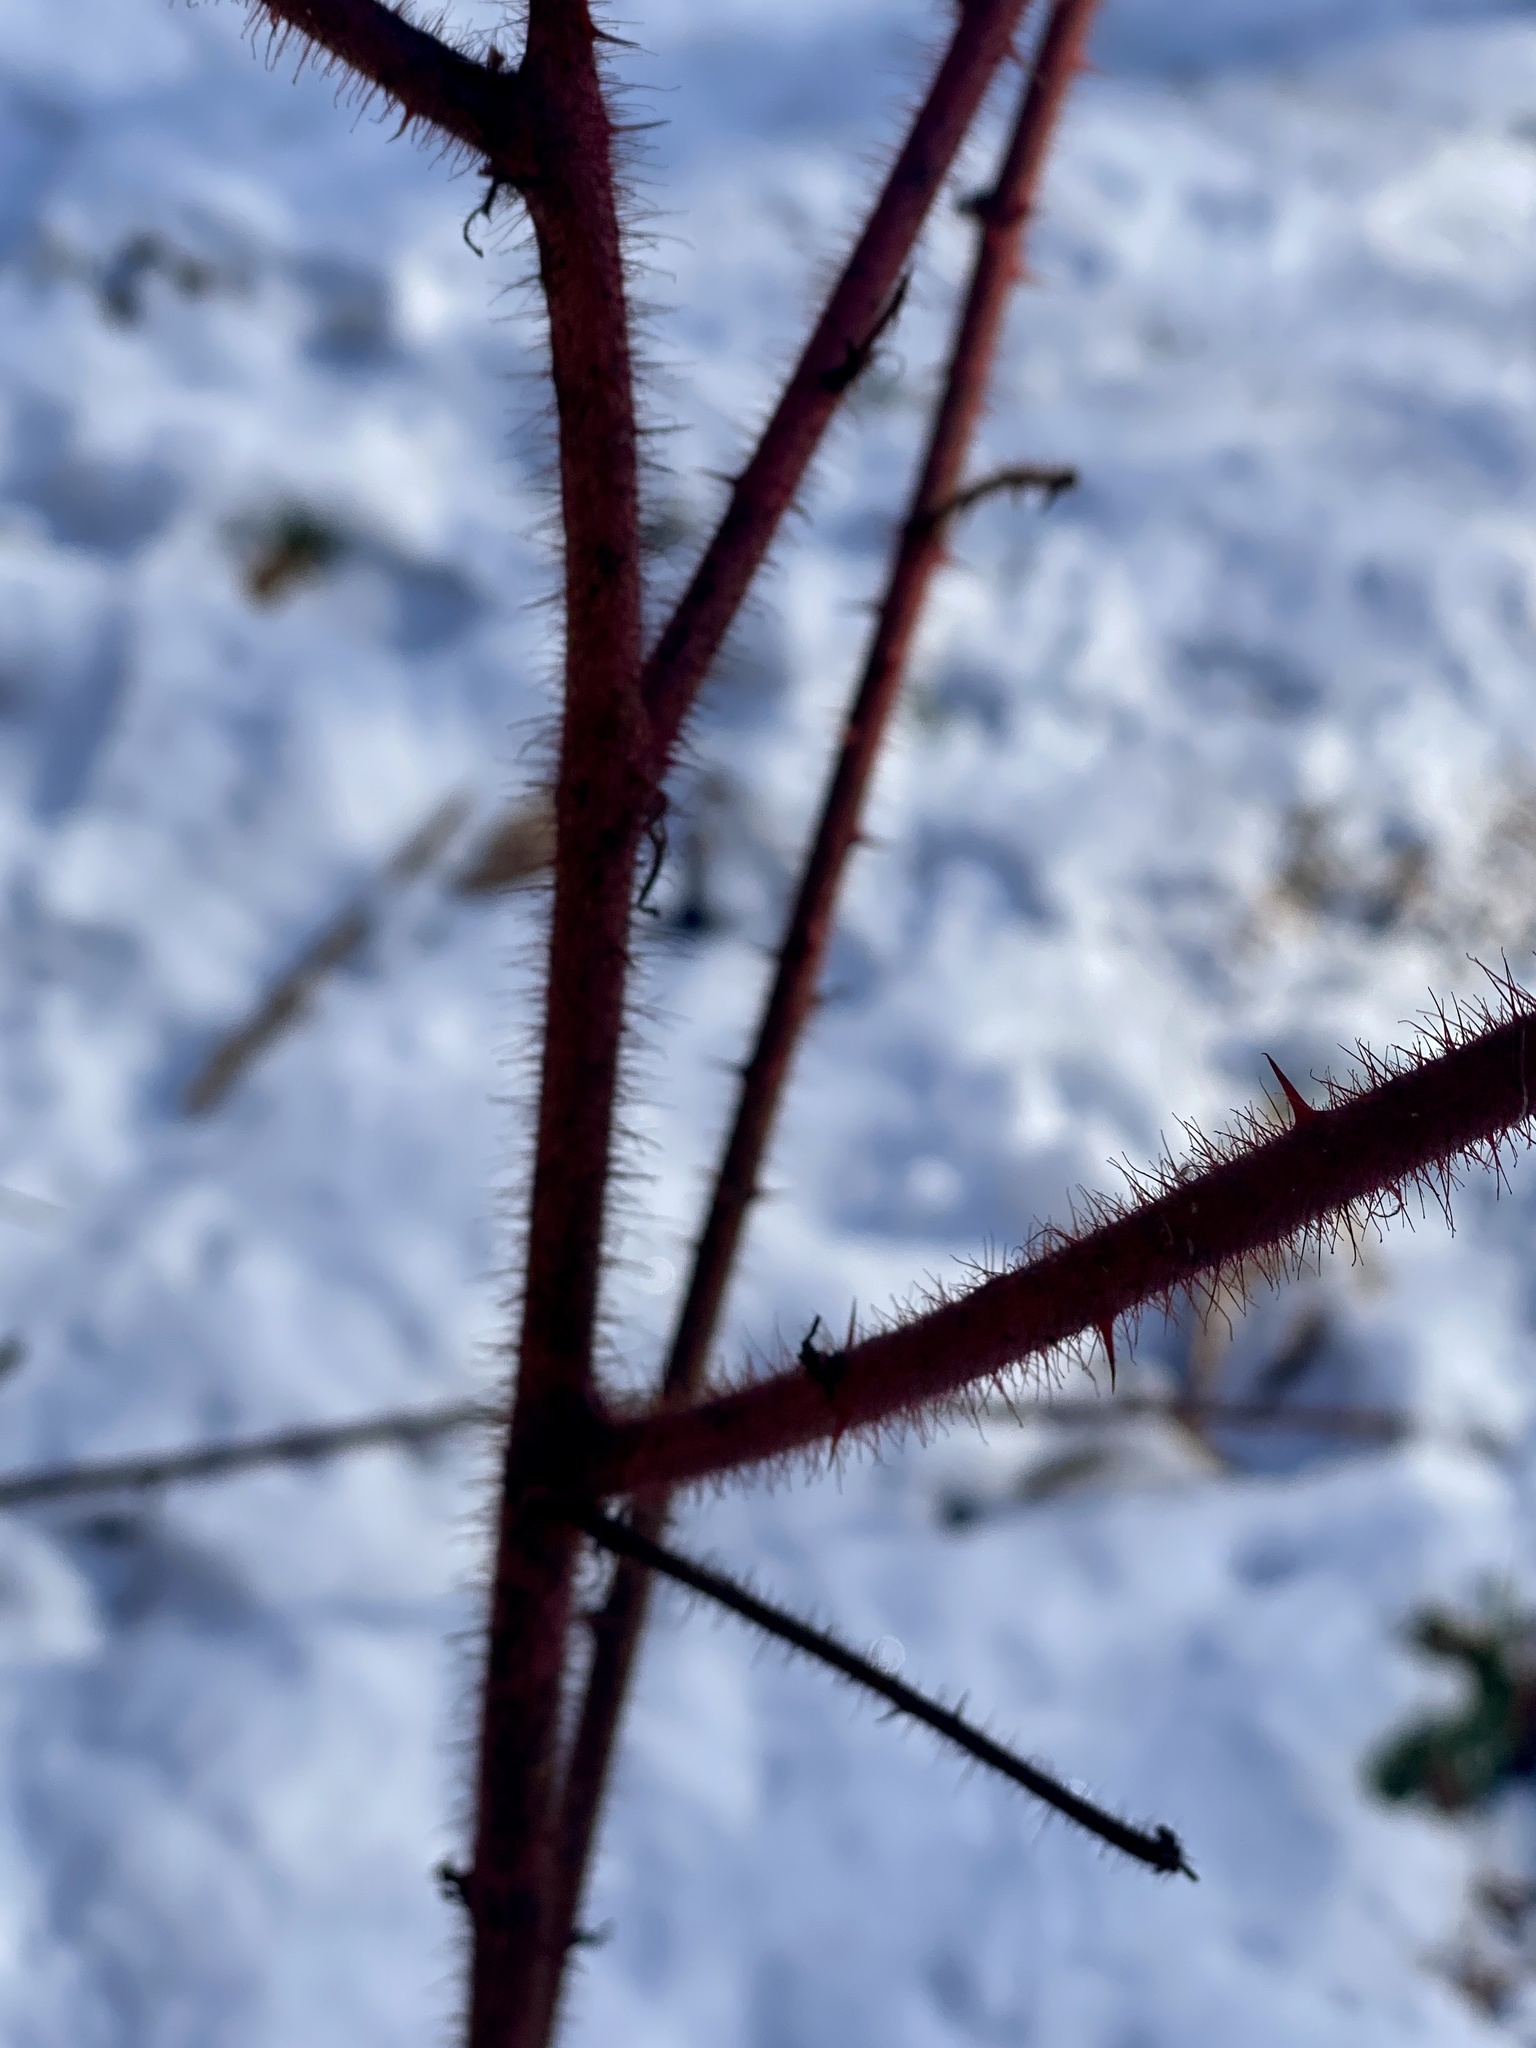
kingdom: Plantae
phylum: Tracheophyta
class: Magnoliopsida
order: Rosales
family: Rosaceae
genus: Rubus
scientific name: Rubus phoenicolasius
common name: Japanese wineberry
